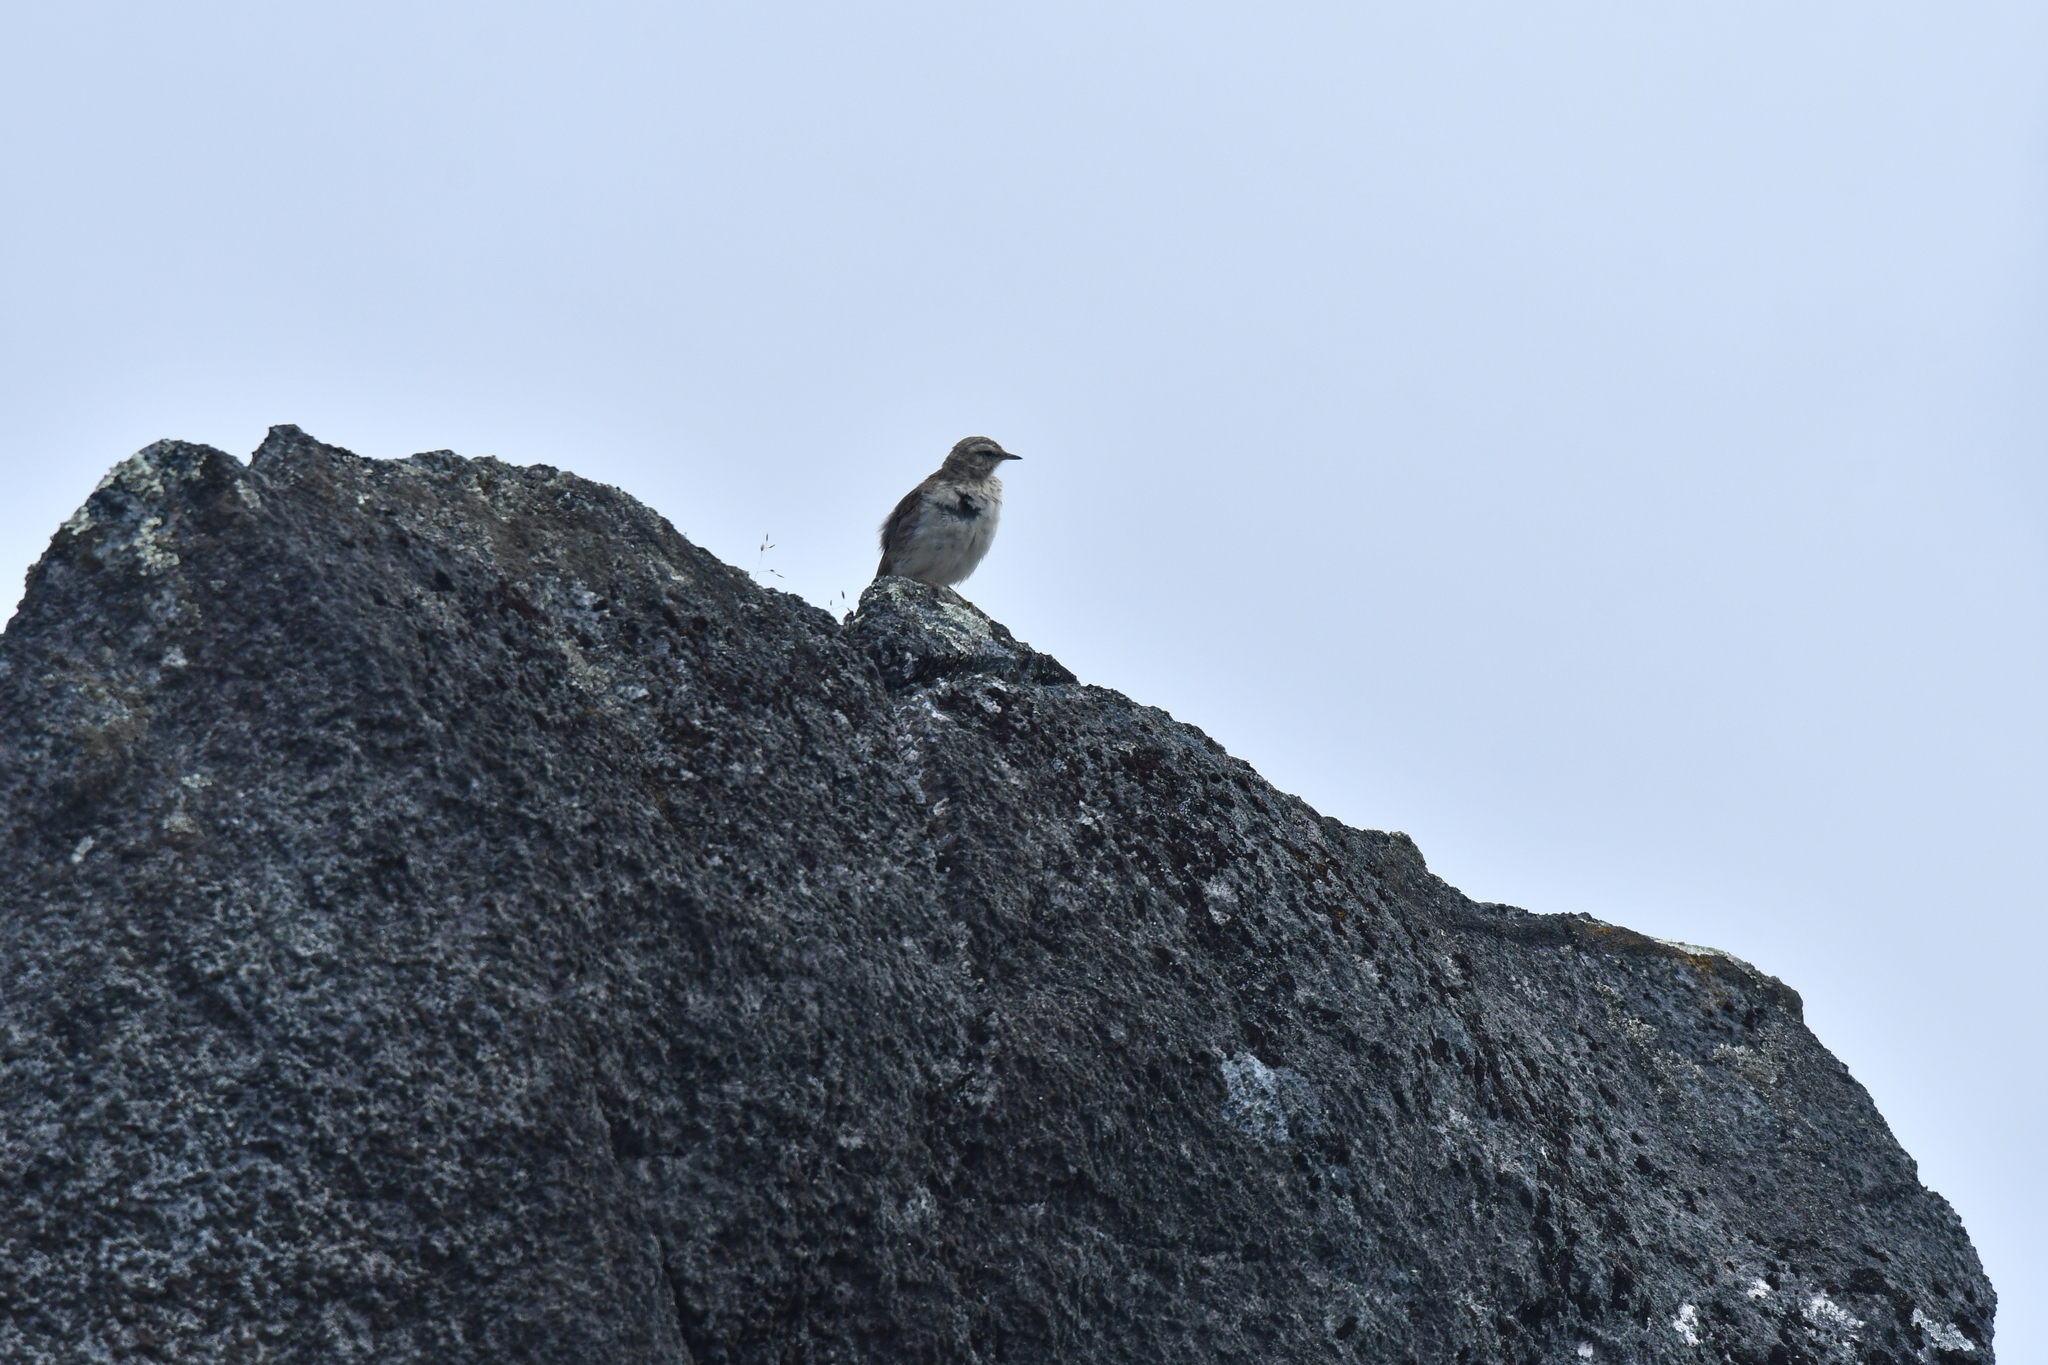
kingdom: Animalia
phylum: Chordata
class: Aves
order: Passeriformes
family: Motacillidae
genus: Anthus
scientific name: Anthus novaeseelandiae
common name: New zealand pipit
